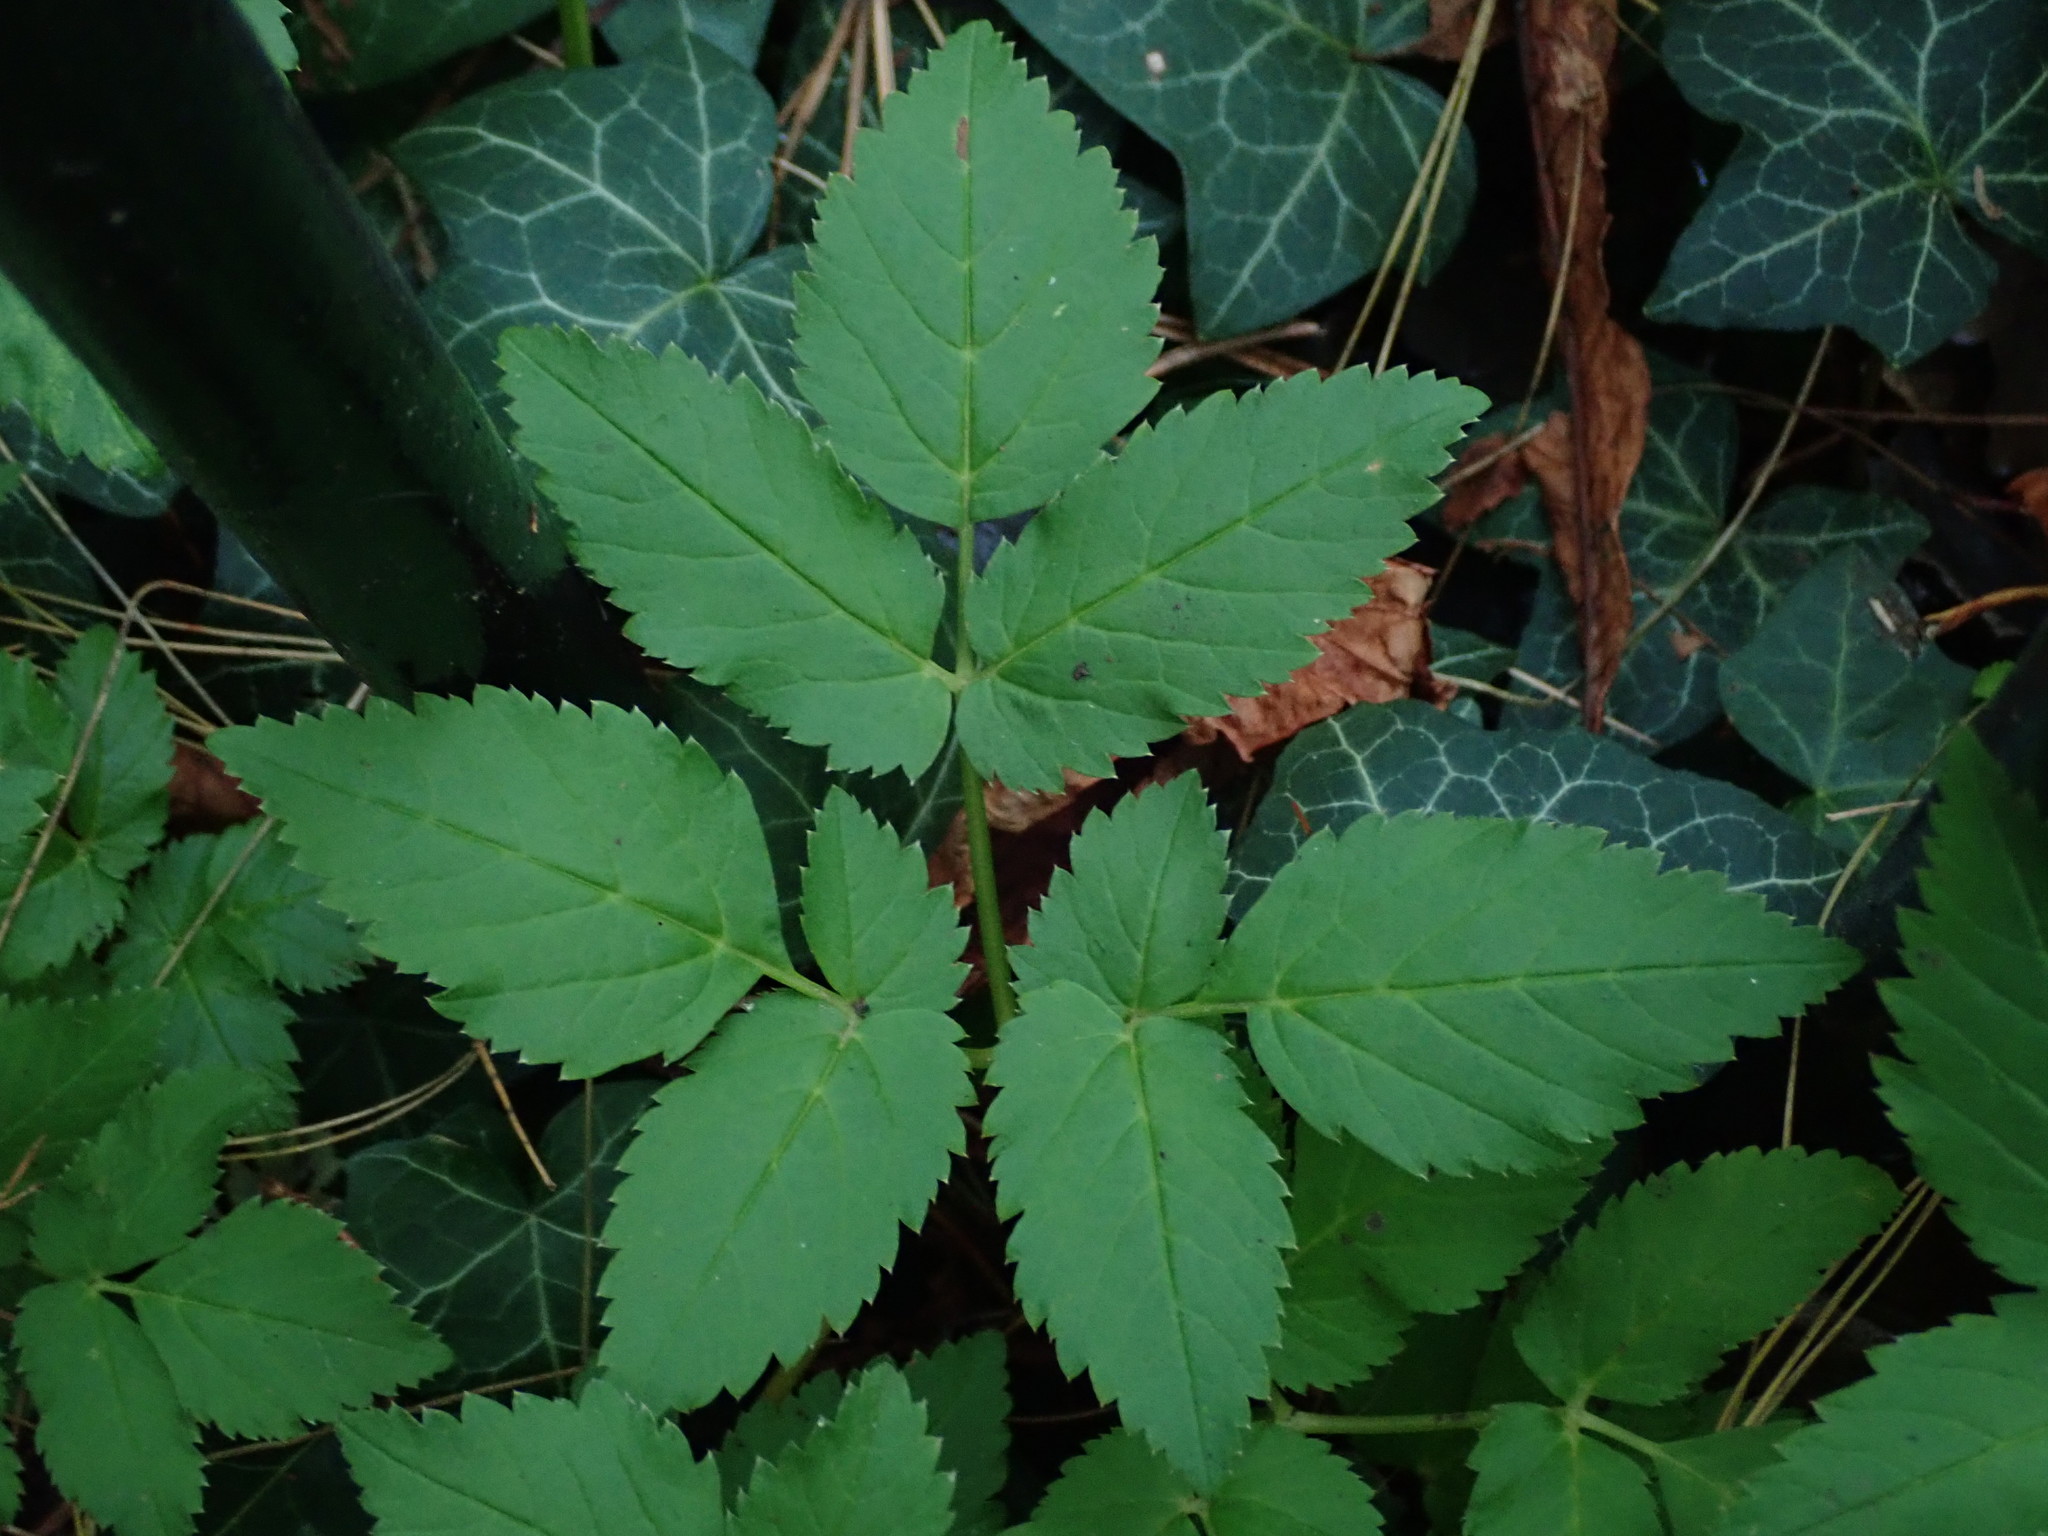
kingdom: Plantae
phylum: Tracheophyta
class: Magnoliopsida
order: Apiales
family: Apiaceae
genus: Aegopodium
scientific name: Aegopodium podagraria
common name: Ground-elder
